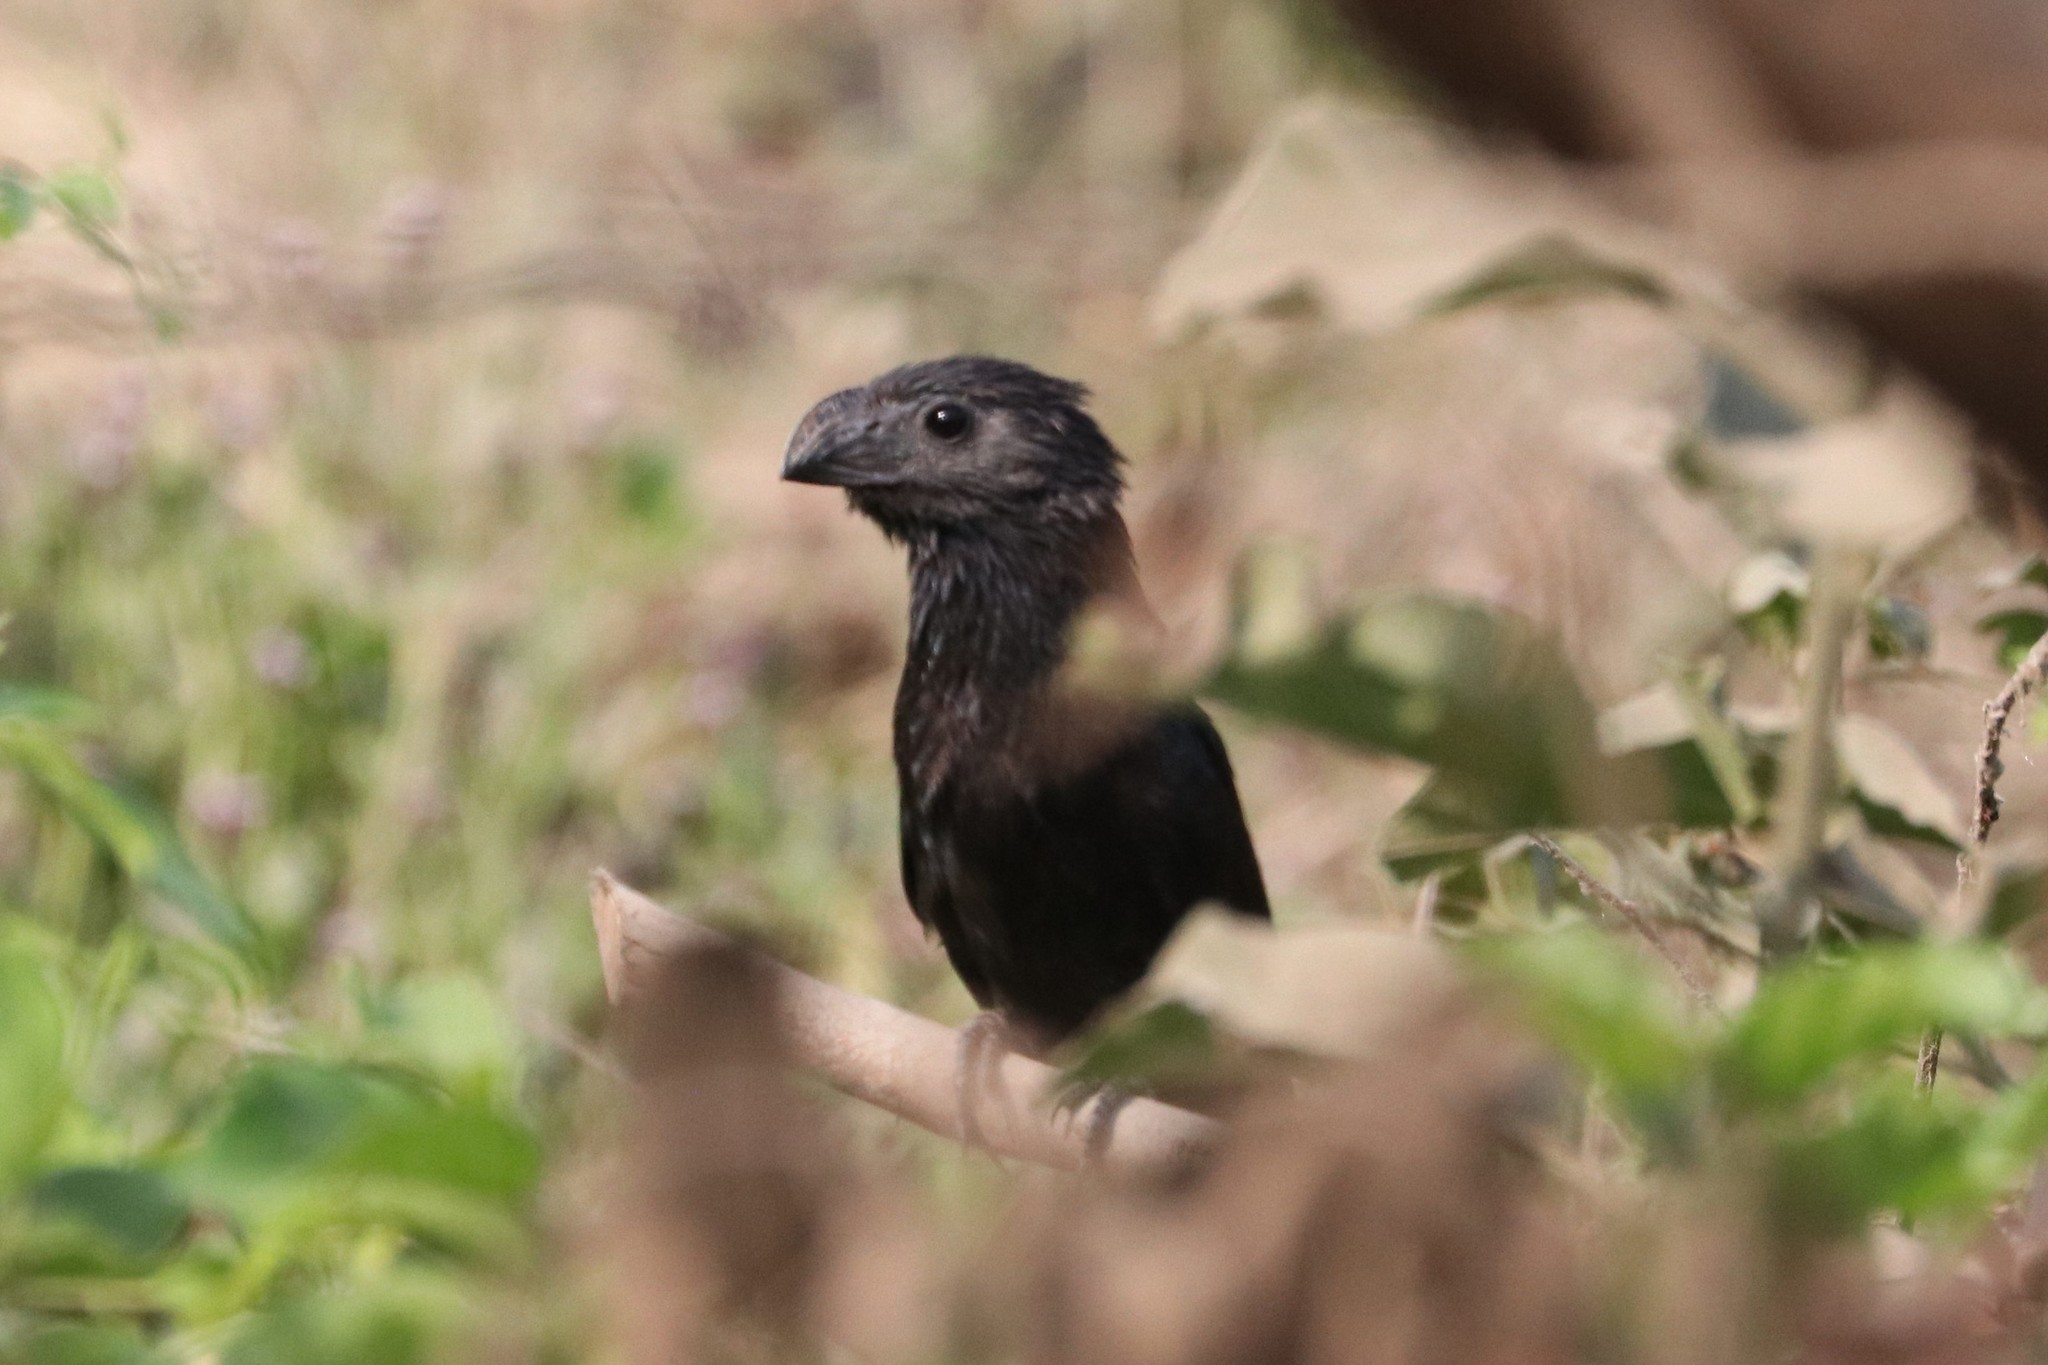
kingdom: Animalia
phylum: Chordata
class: Aves
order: Cuculiformes
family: Cuculidae
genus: Crotophaga
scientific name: Crotophaga sulcirostris
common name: Groove-billed ani
